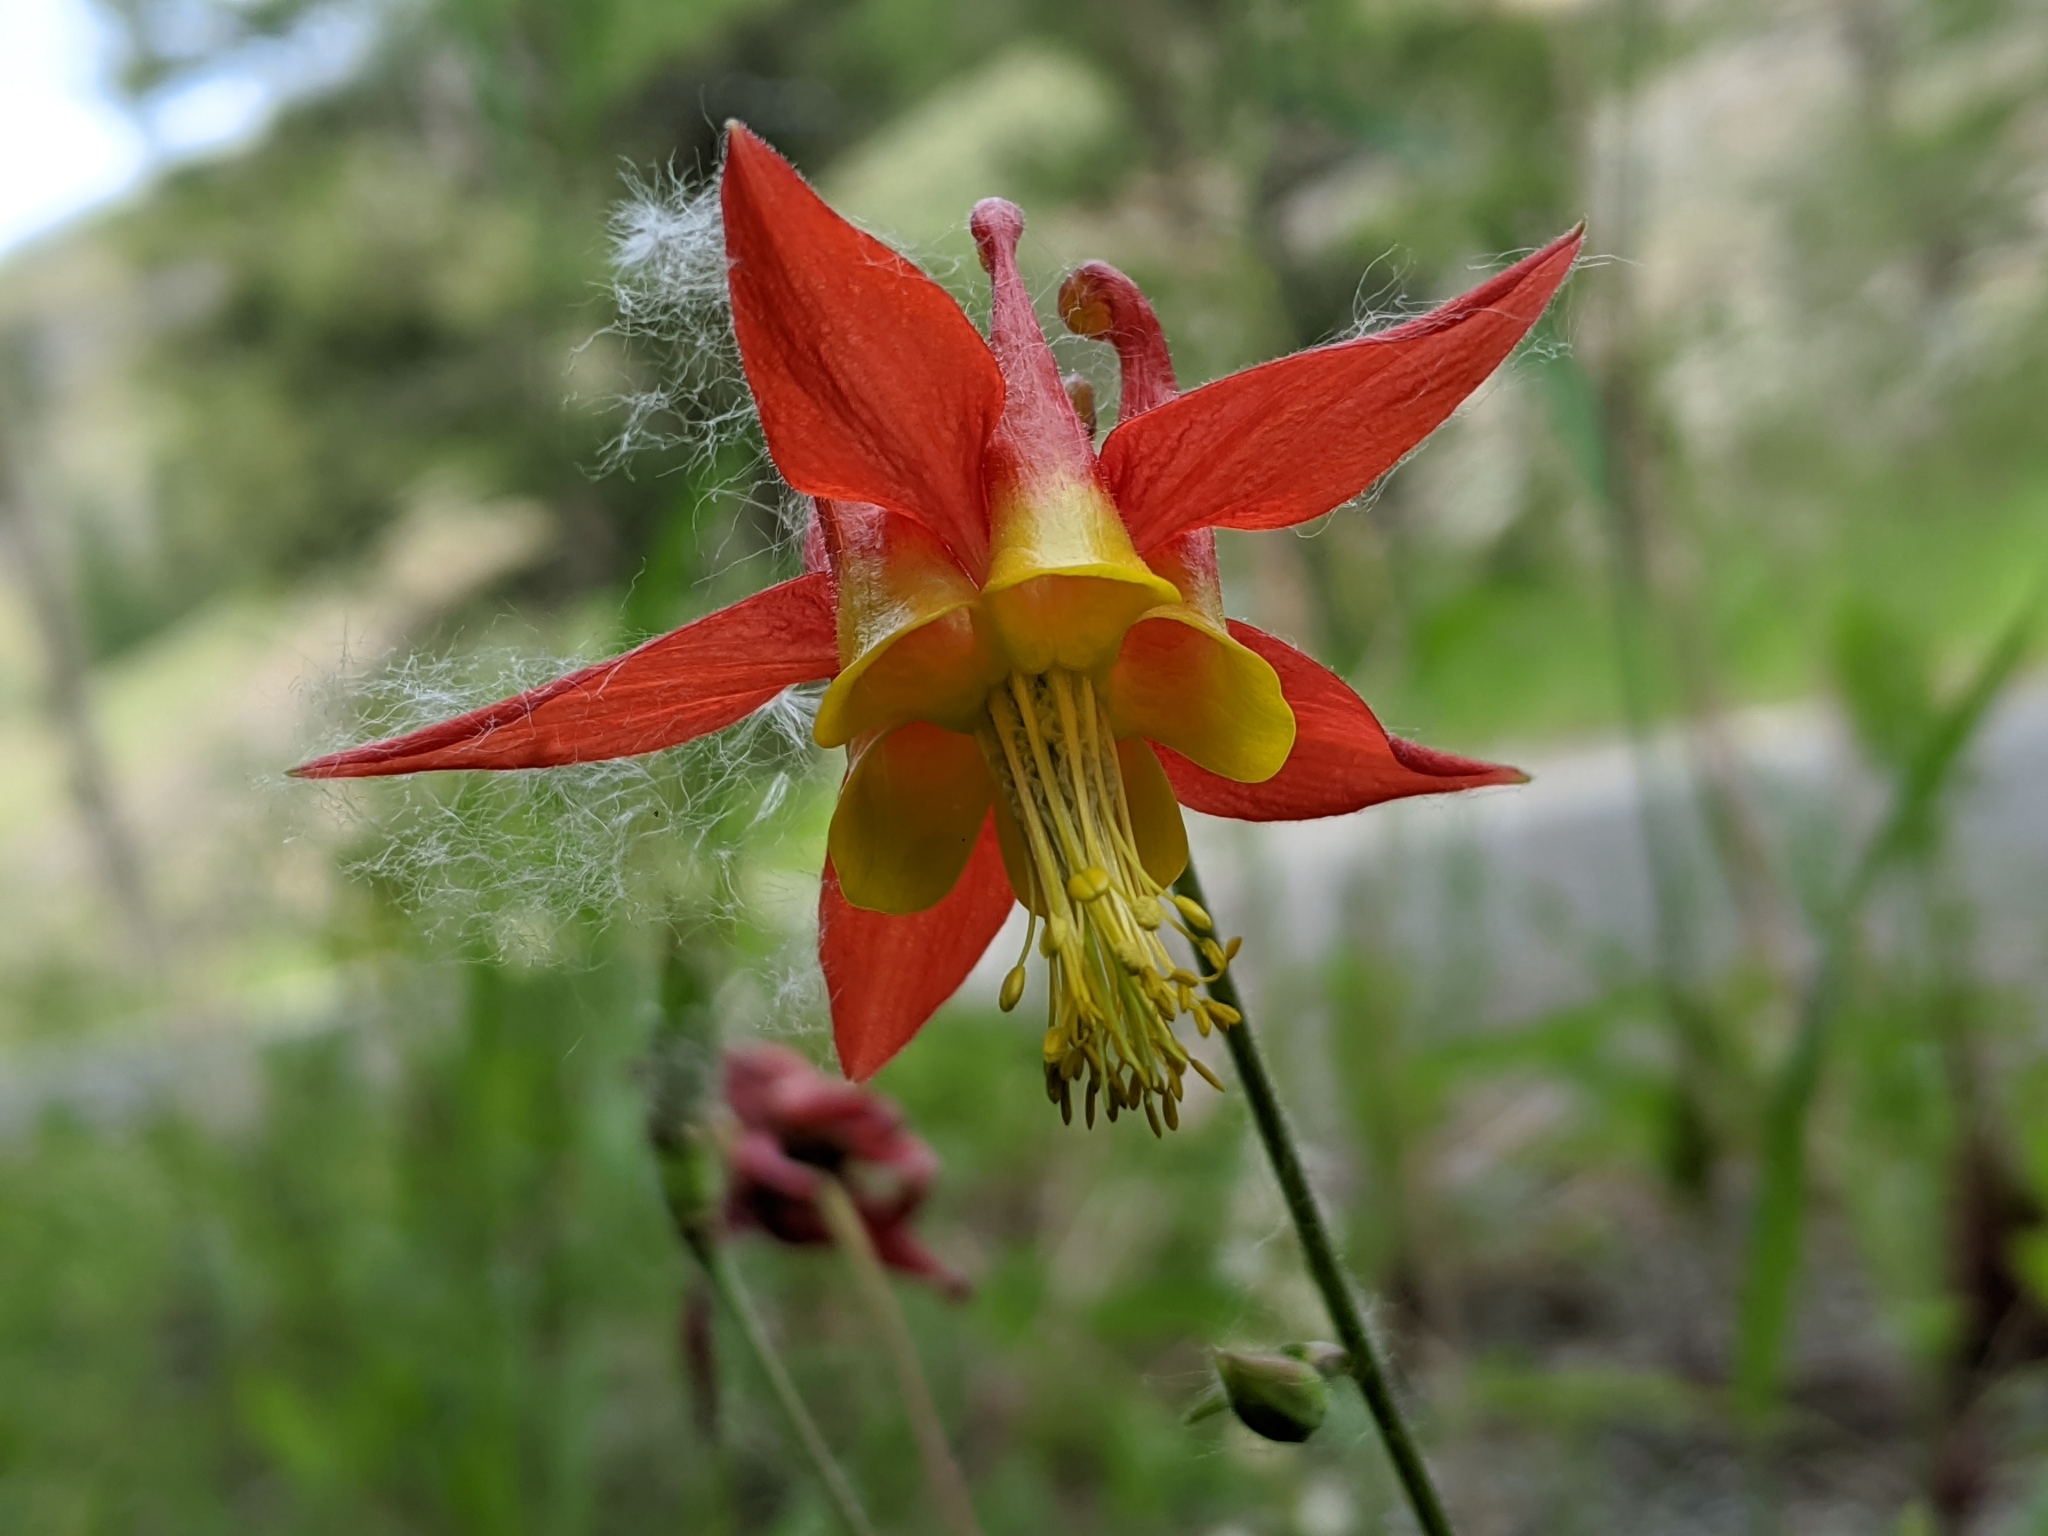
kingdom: Plantae
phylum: Tracheophyta
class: Magnoliopsida
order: Ranunculales
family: Ranunculaceae
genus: Aquilegia
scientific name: Aquilegia formosa
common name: Sitka columbine
